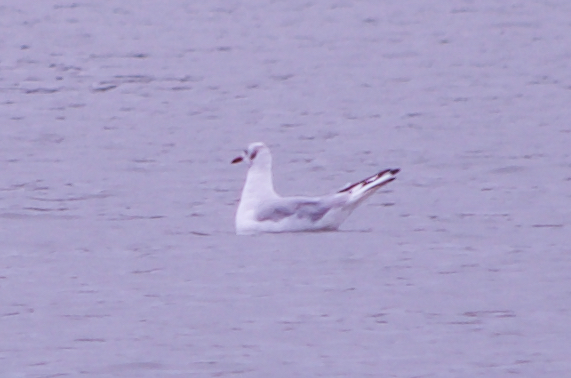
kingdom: Animalia
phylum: Chordata
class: Aves
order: Charadriiformes
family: Laridae
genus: Chroicocephalus
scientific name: Chroicocephalus ridibundus
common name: Black-headed gull
